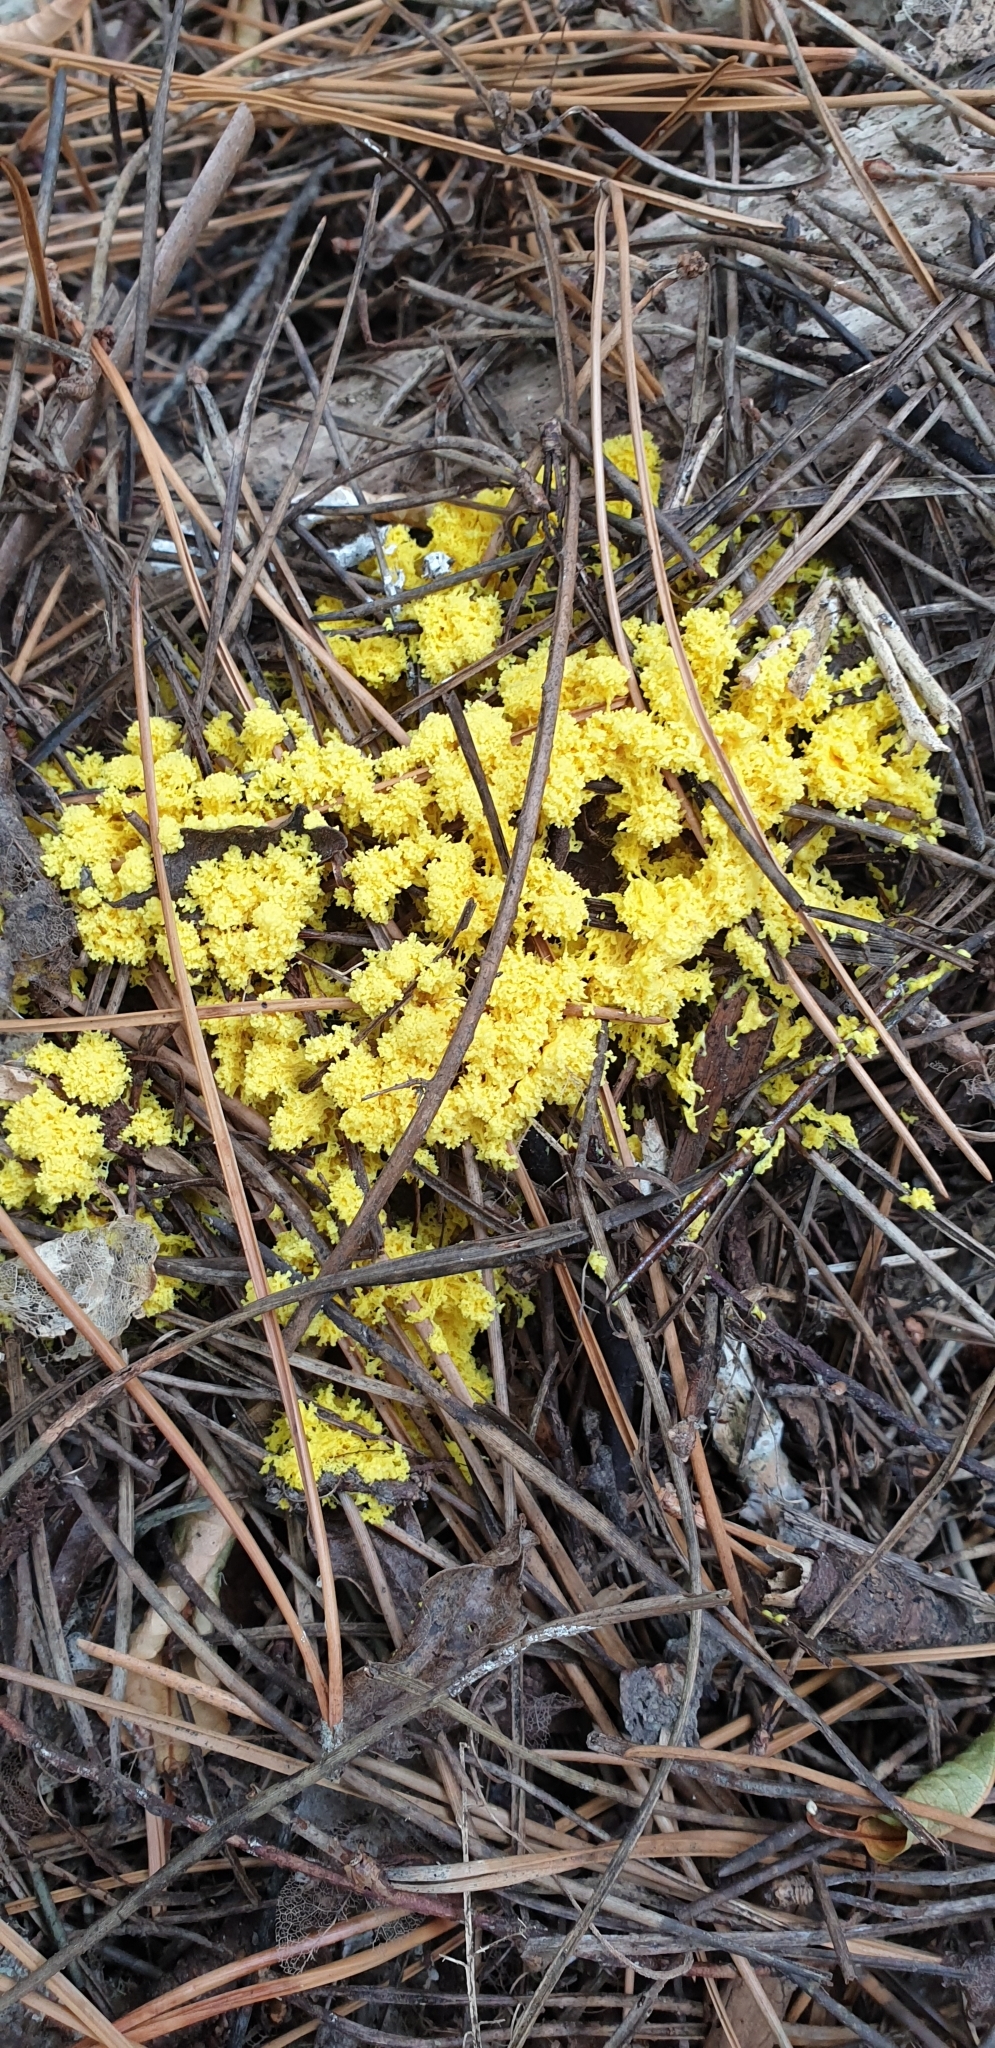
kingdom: Protozoa
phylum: Mycetozoa
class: Myxomycetes
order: Physarales
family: Physaraceae
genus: Fuligo
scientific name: Fuligo septica
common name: Dog vomit slime mold
